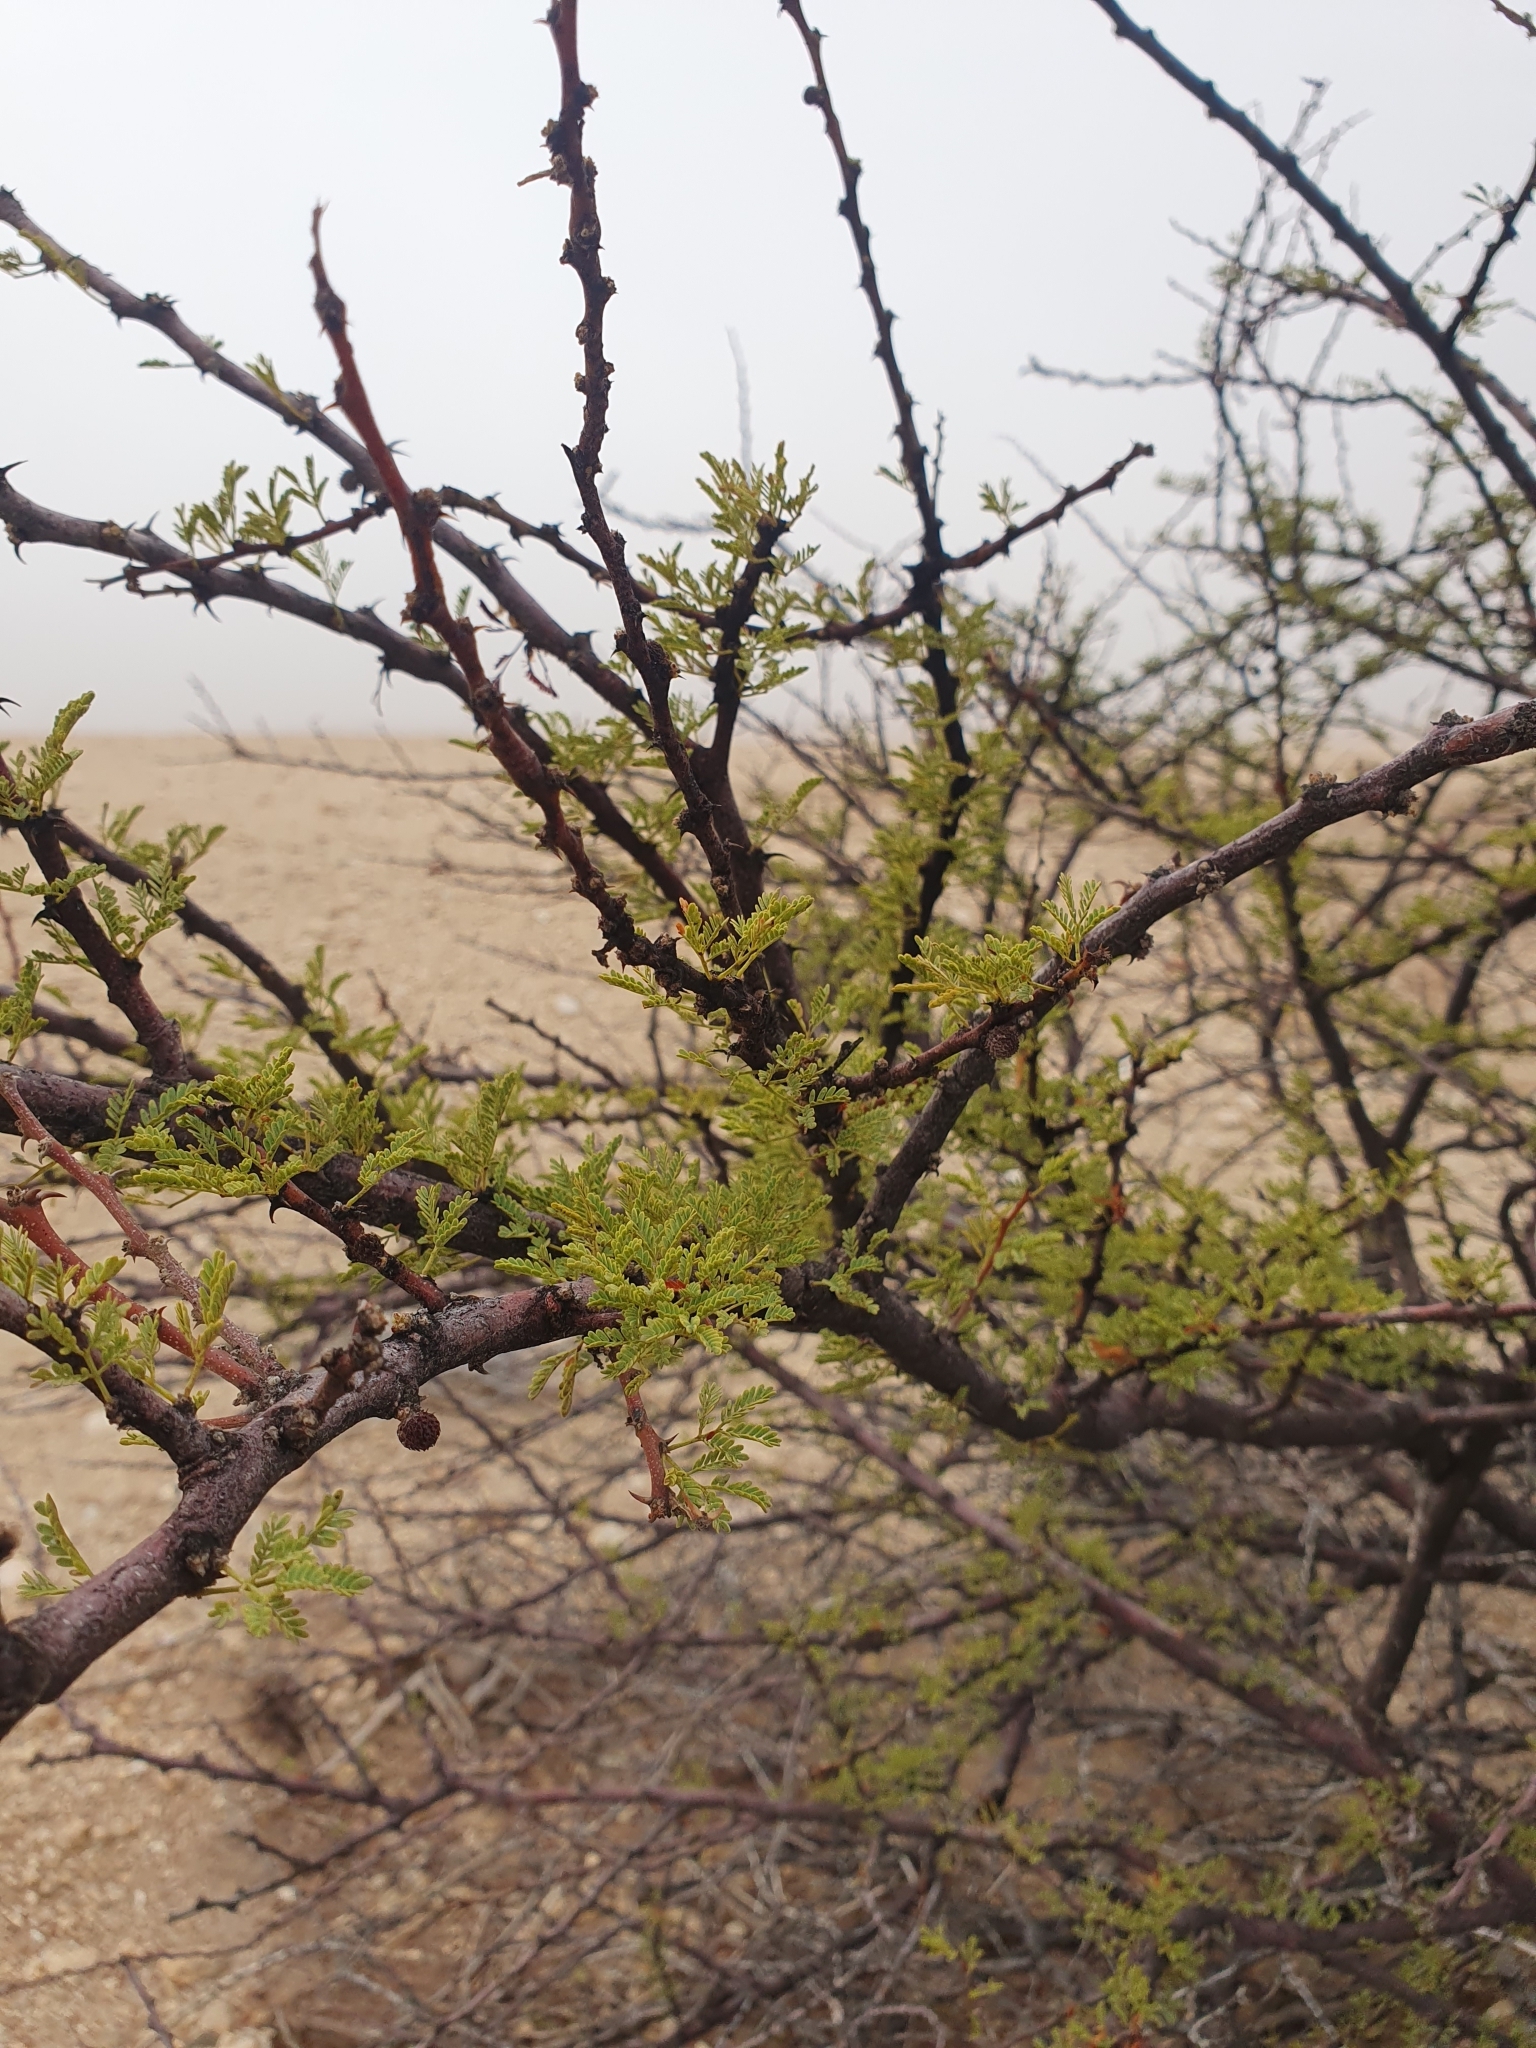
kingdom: Plantae
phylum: Tracheophyta
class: Magnoliopsida
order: Fabales
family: Fabaceae
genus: Vachellia
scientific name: Vachellia reficiens
